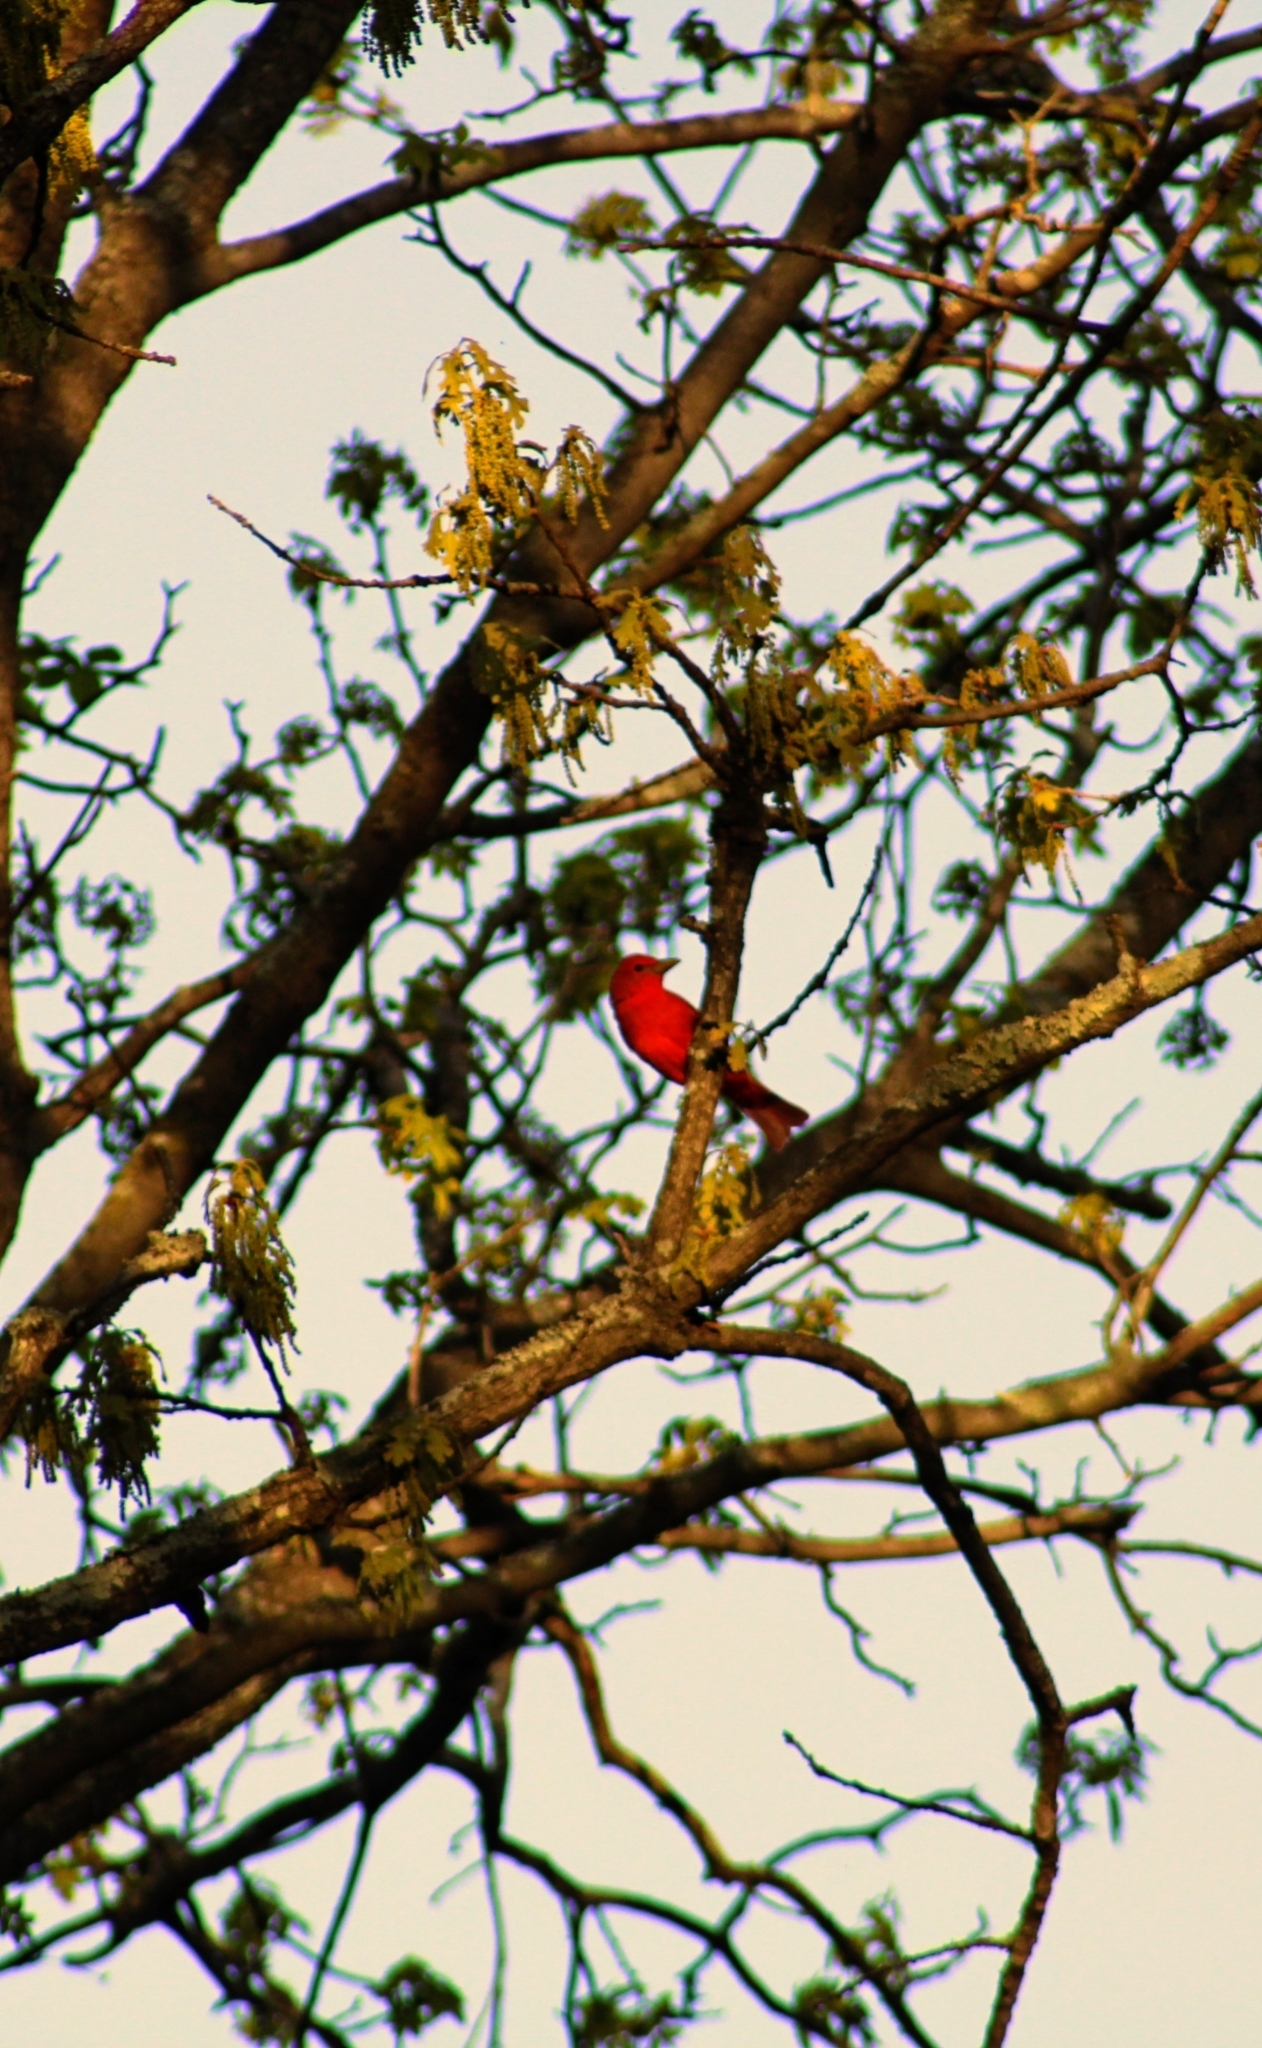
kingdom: Animalia
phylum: Chordata
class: Aves
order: Passeriformes
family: Cardinalidae
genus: Piranga
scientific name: Piranga rubra
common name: Summer tanager
